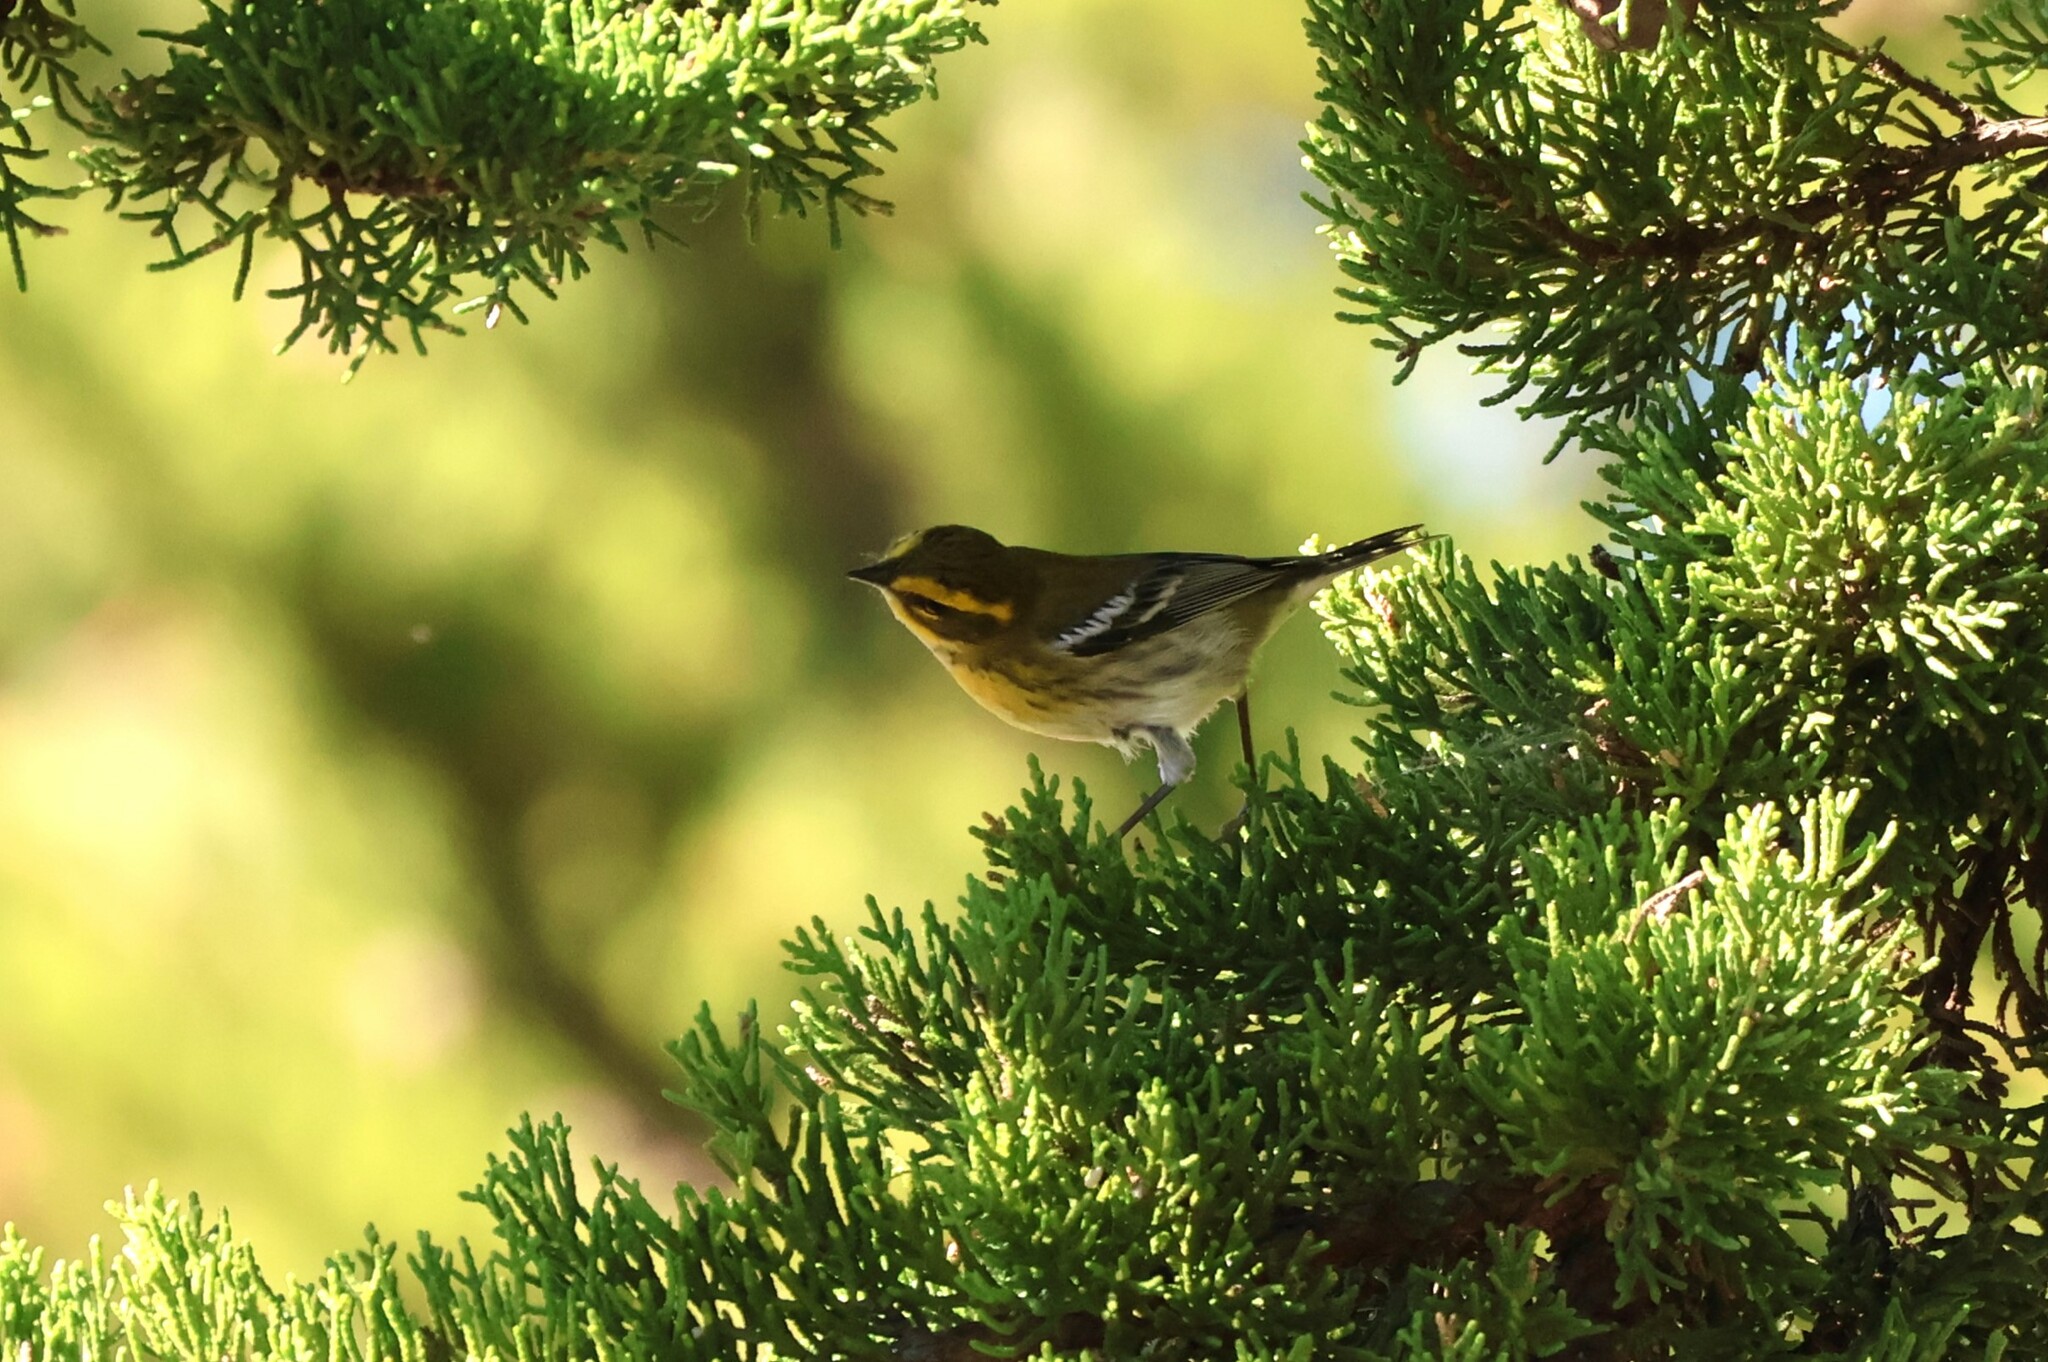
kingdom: Animalia
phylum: Chordata
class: Aves
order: Passeriformes
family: Parulidae
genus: Setophaga
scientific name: Setophaga townsendi
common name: Townsend's warbler
